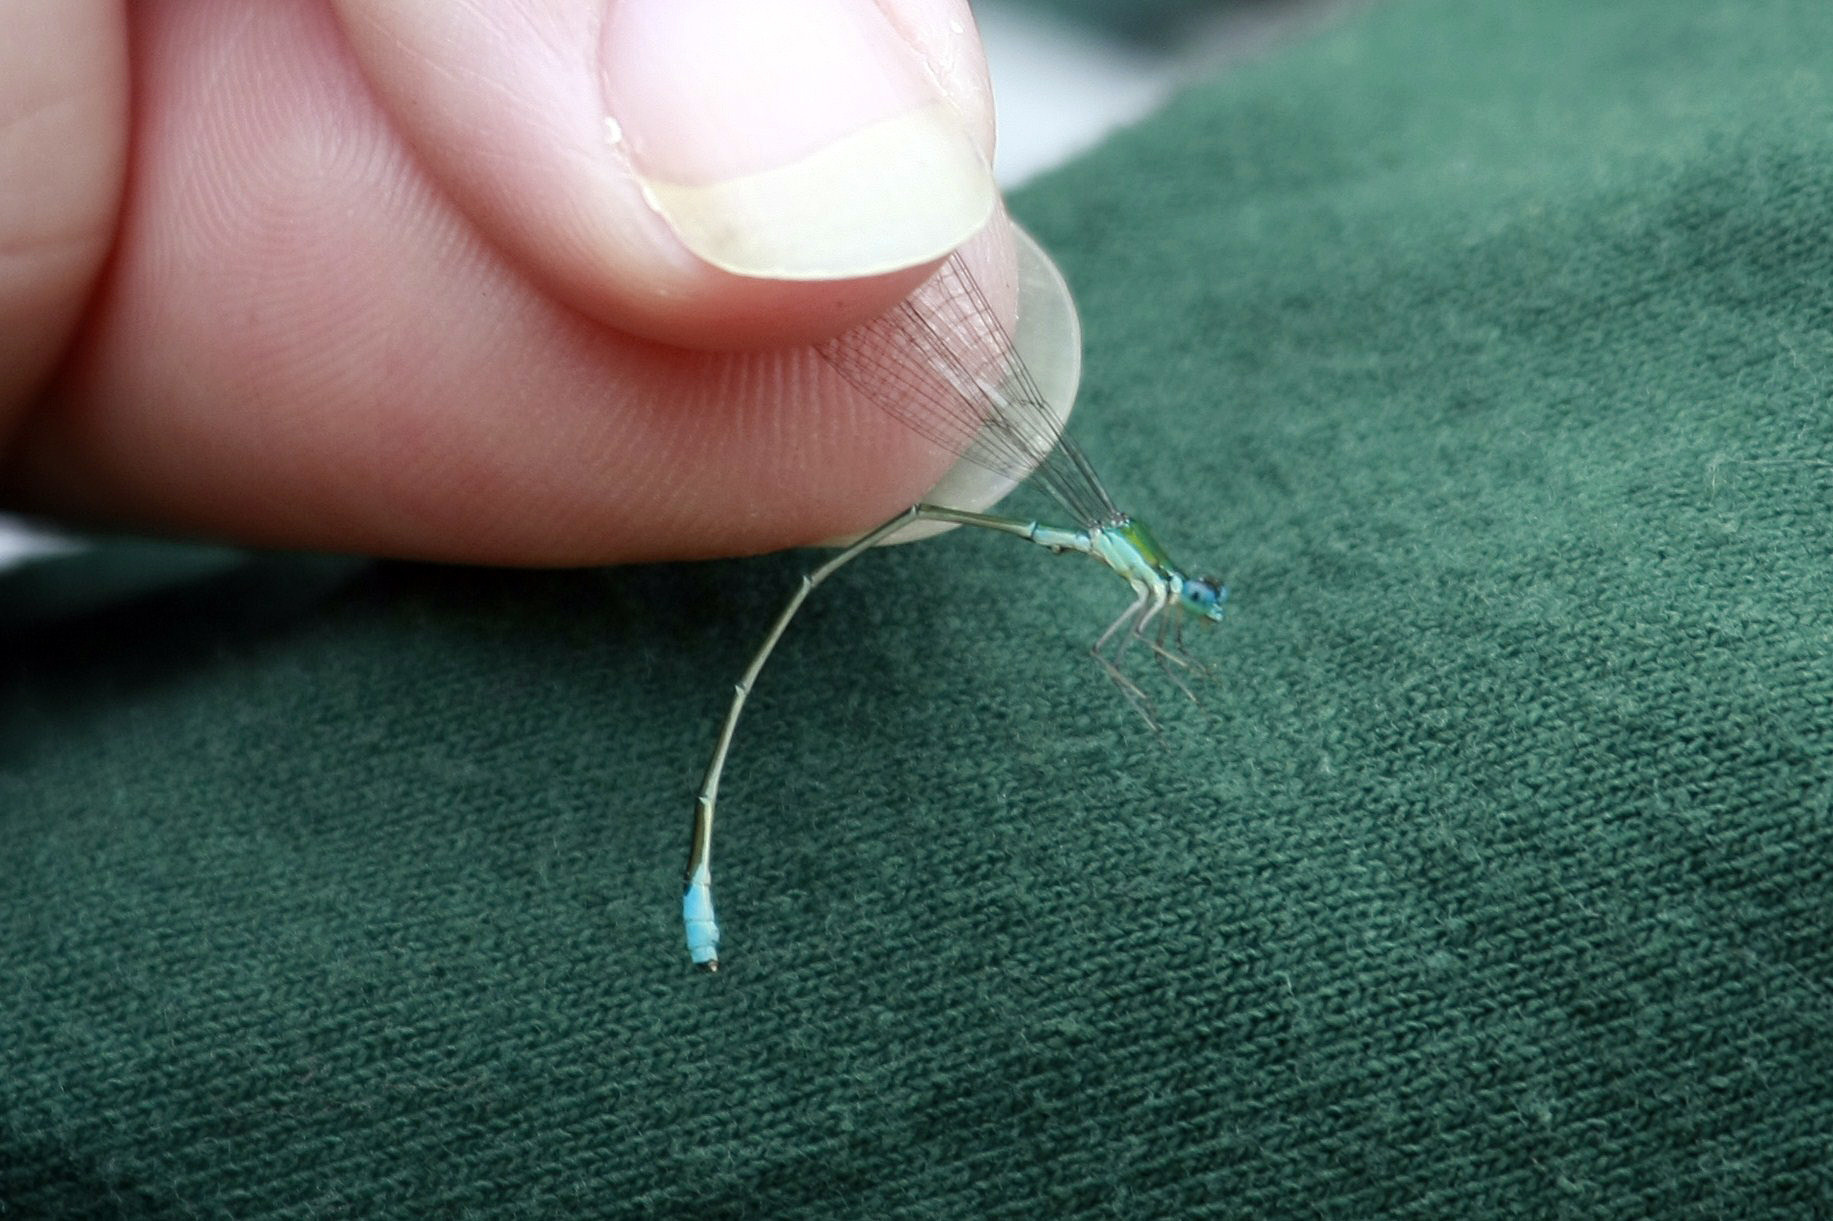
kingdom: Animalia
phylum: Arthropoda
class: Insecta
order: Odonata
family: Coenagrionidae
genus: Nehalennia
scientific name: Nehalennia gracilis
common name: Sphagnum sprite
